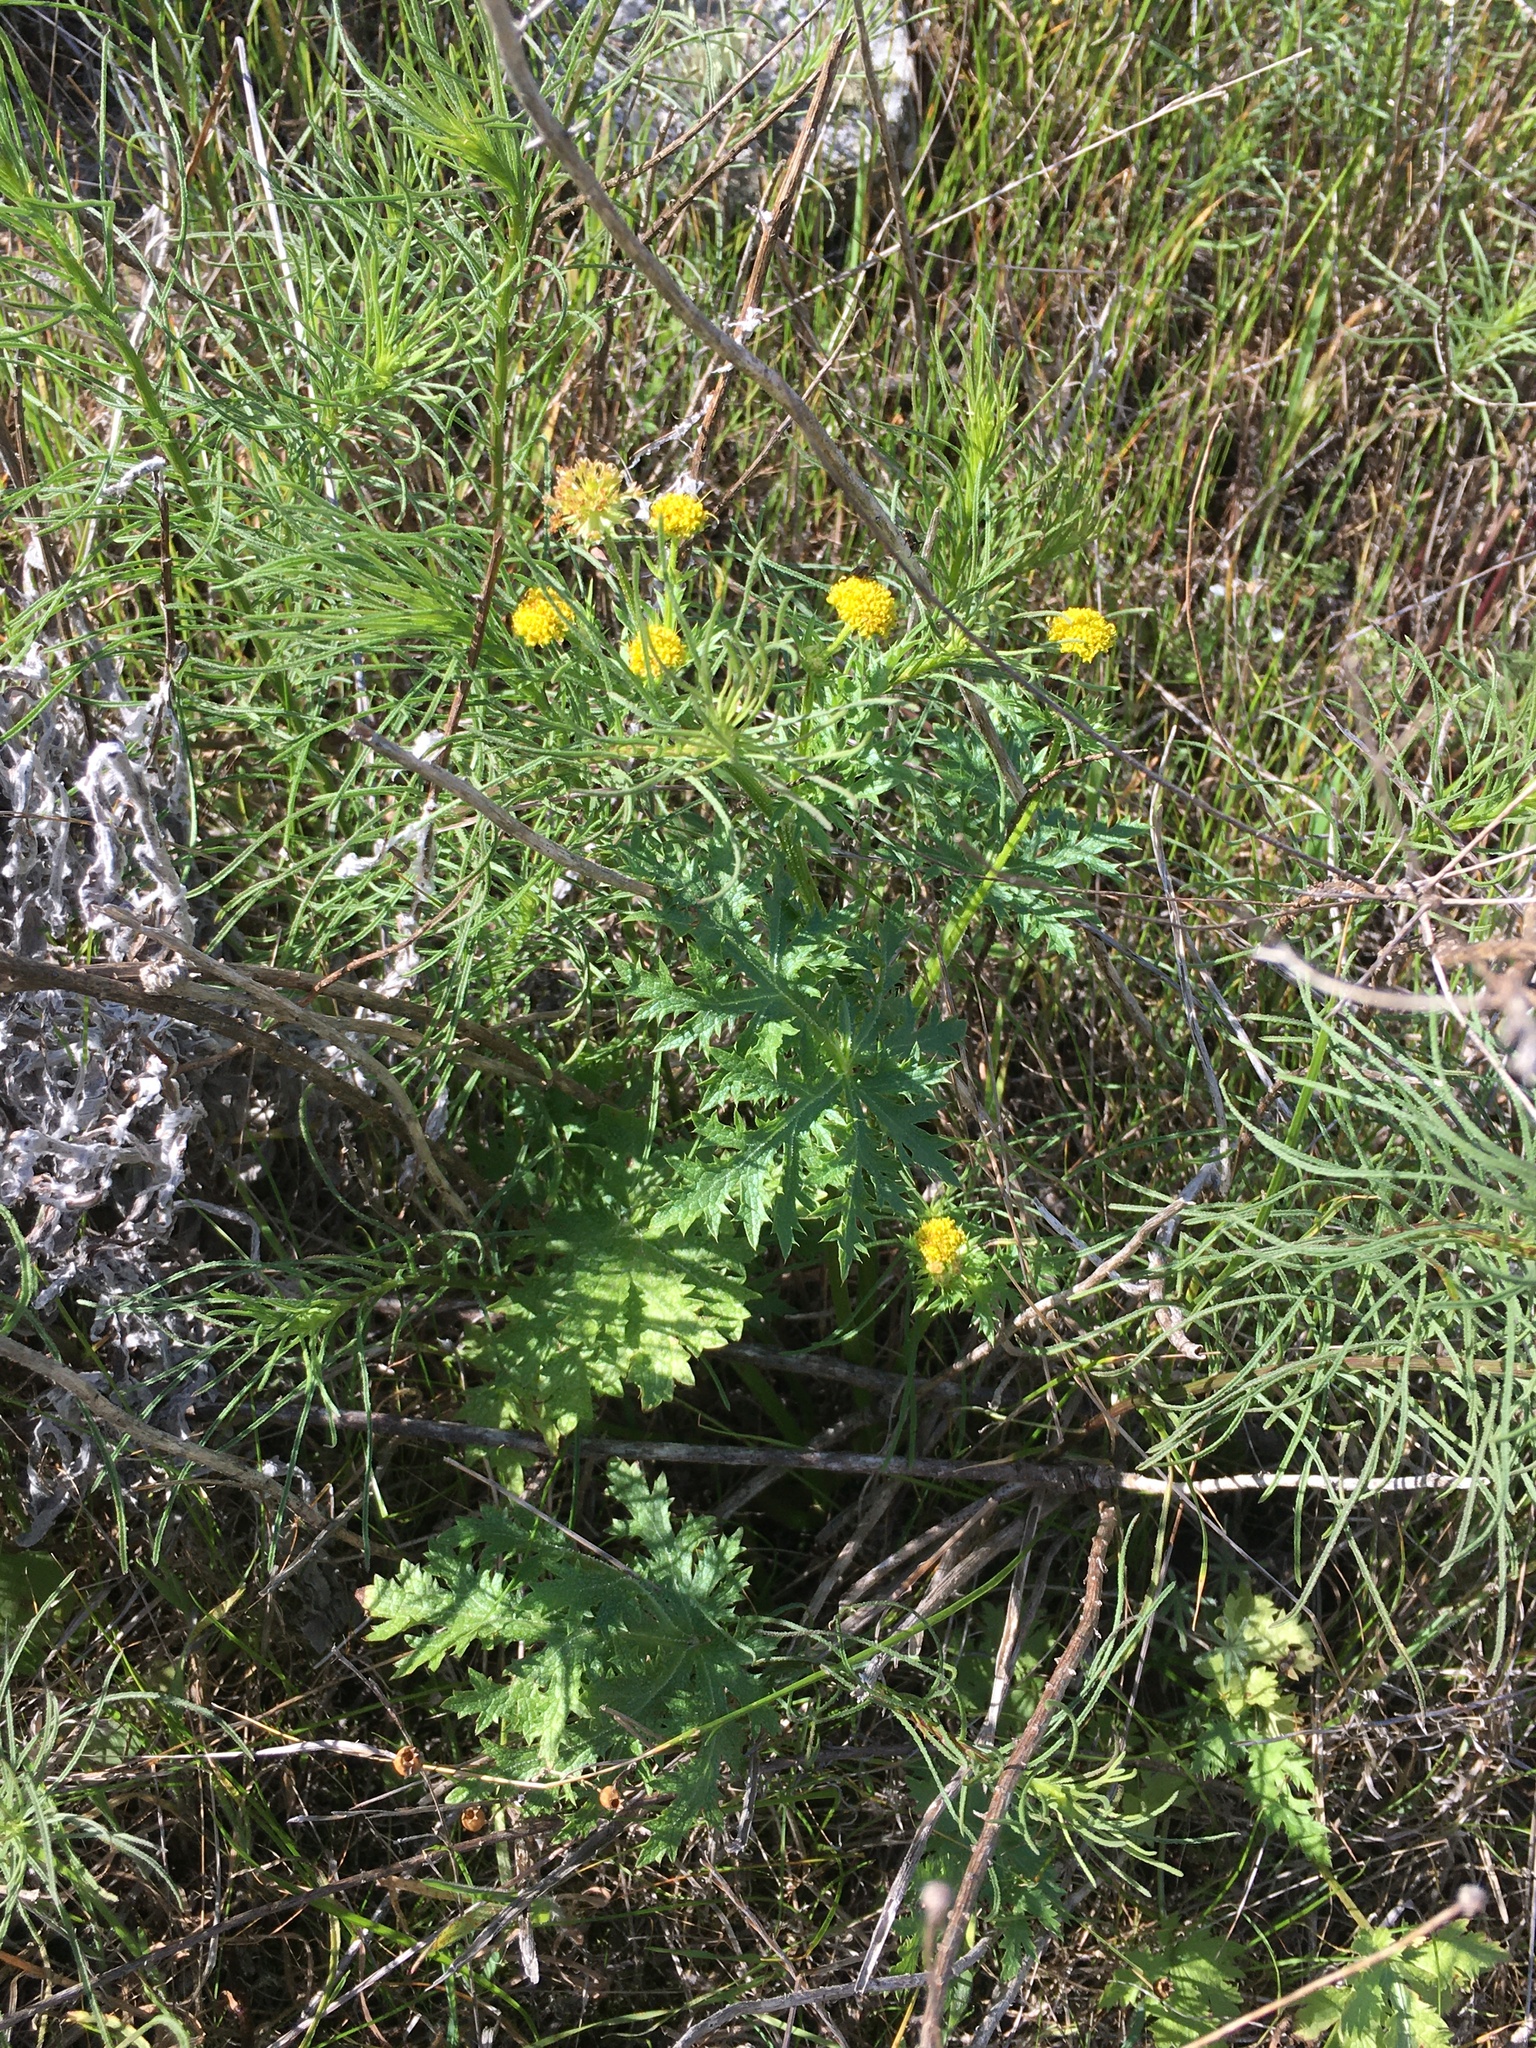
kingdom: Plantae
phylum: Tracheophyta
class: Magnoliopsida
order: Apiales
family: Apiaceae
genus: Sanicula
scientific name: Sanicula arguta
